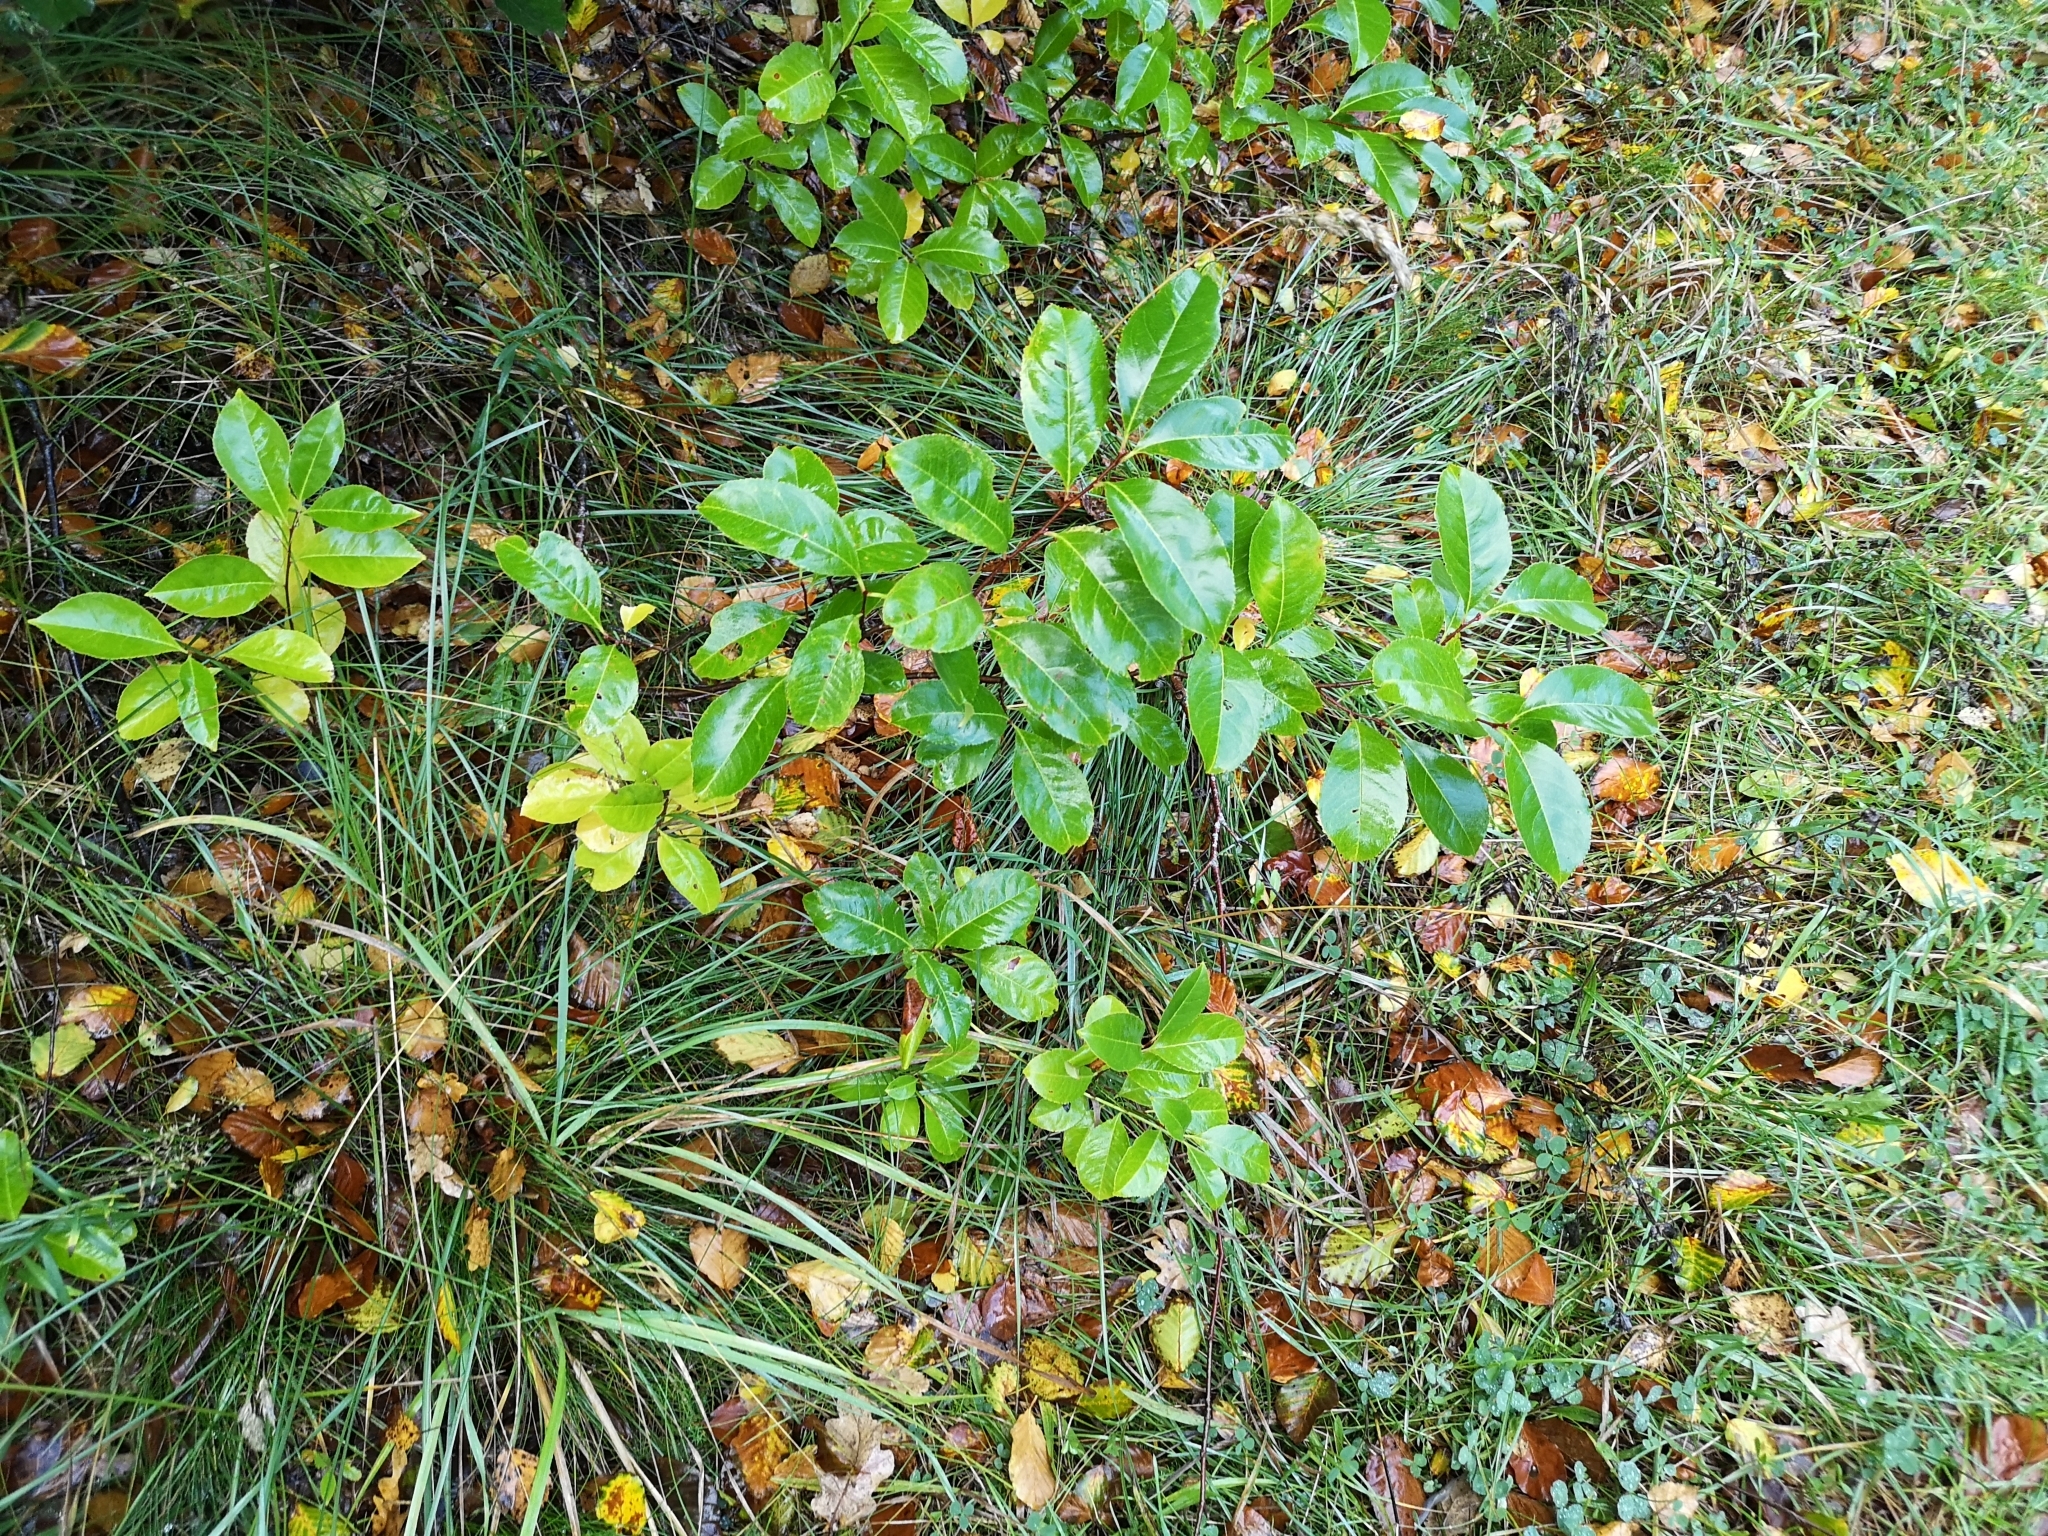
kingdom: Plantae
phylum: Tracheophyta
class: Magnoliopsida
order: Rosales
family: Rosaceae
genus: Prunus
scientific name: Prunus serotina
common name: Black cherry
